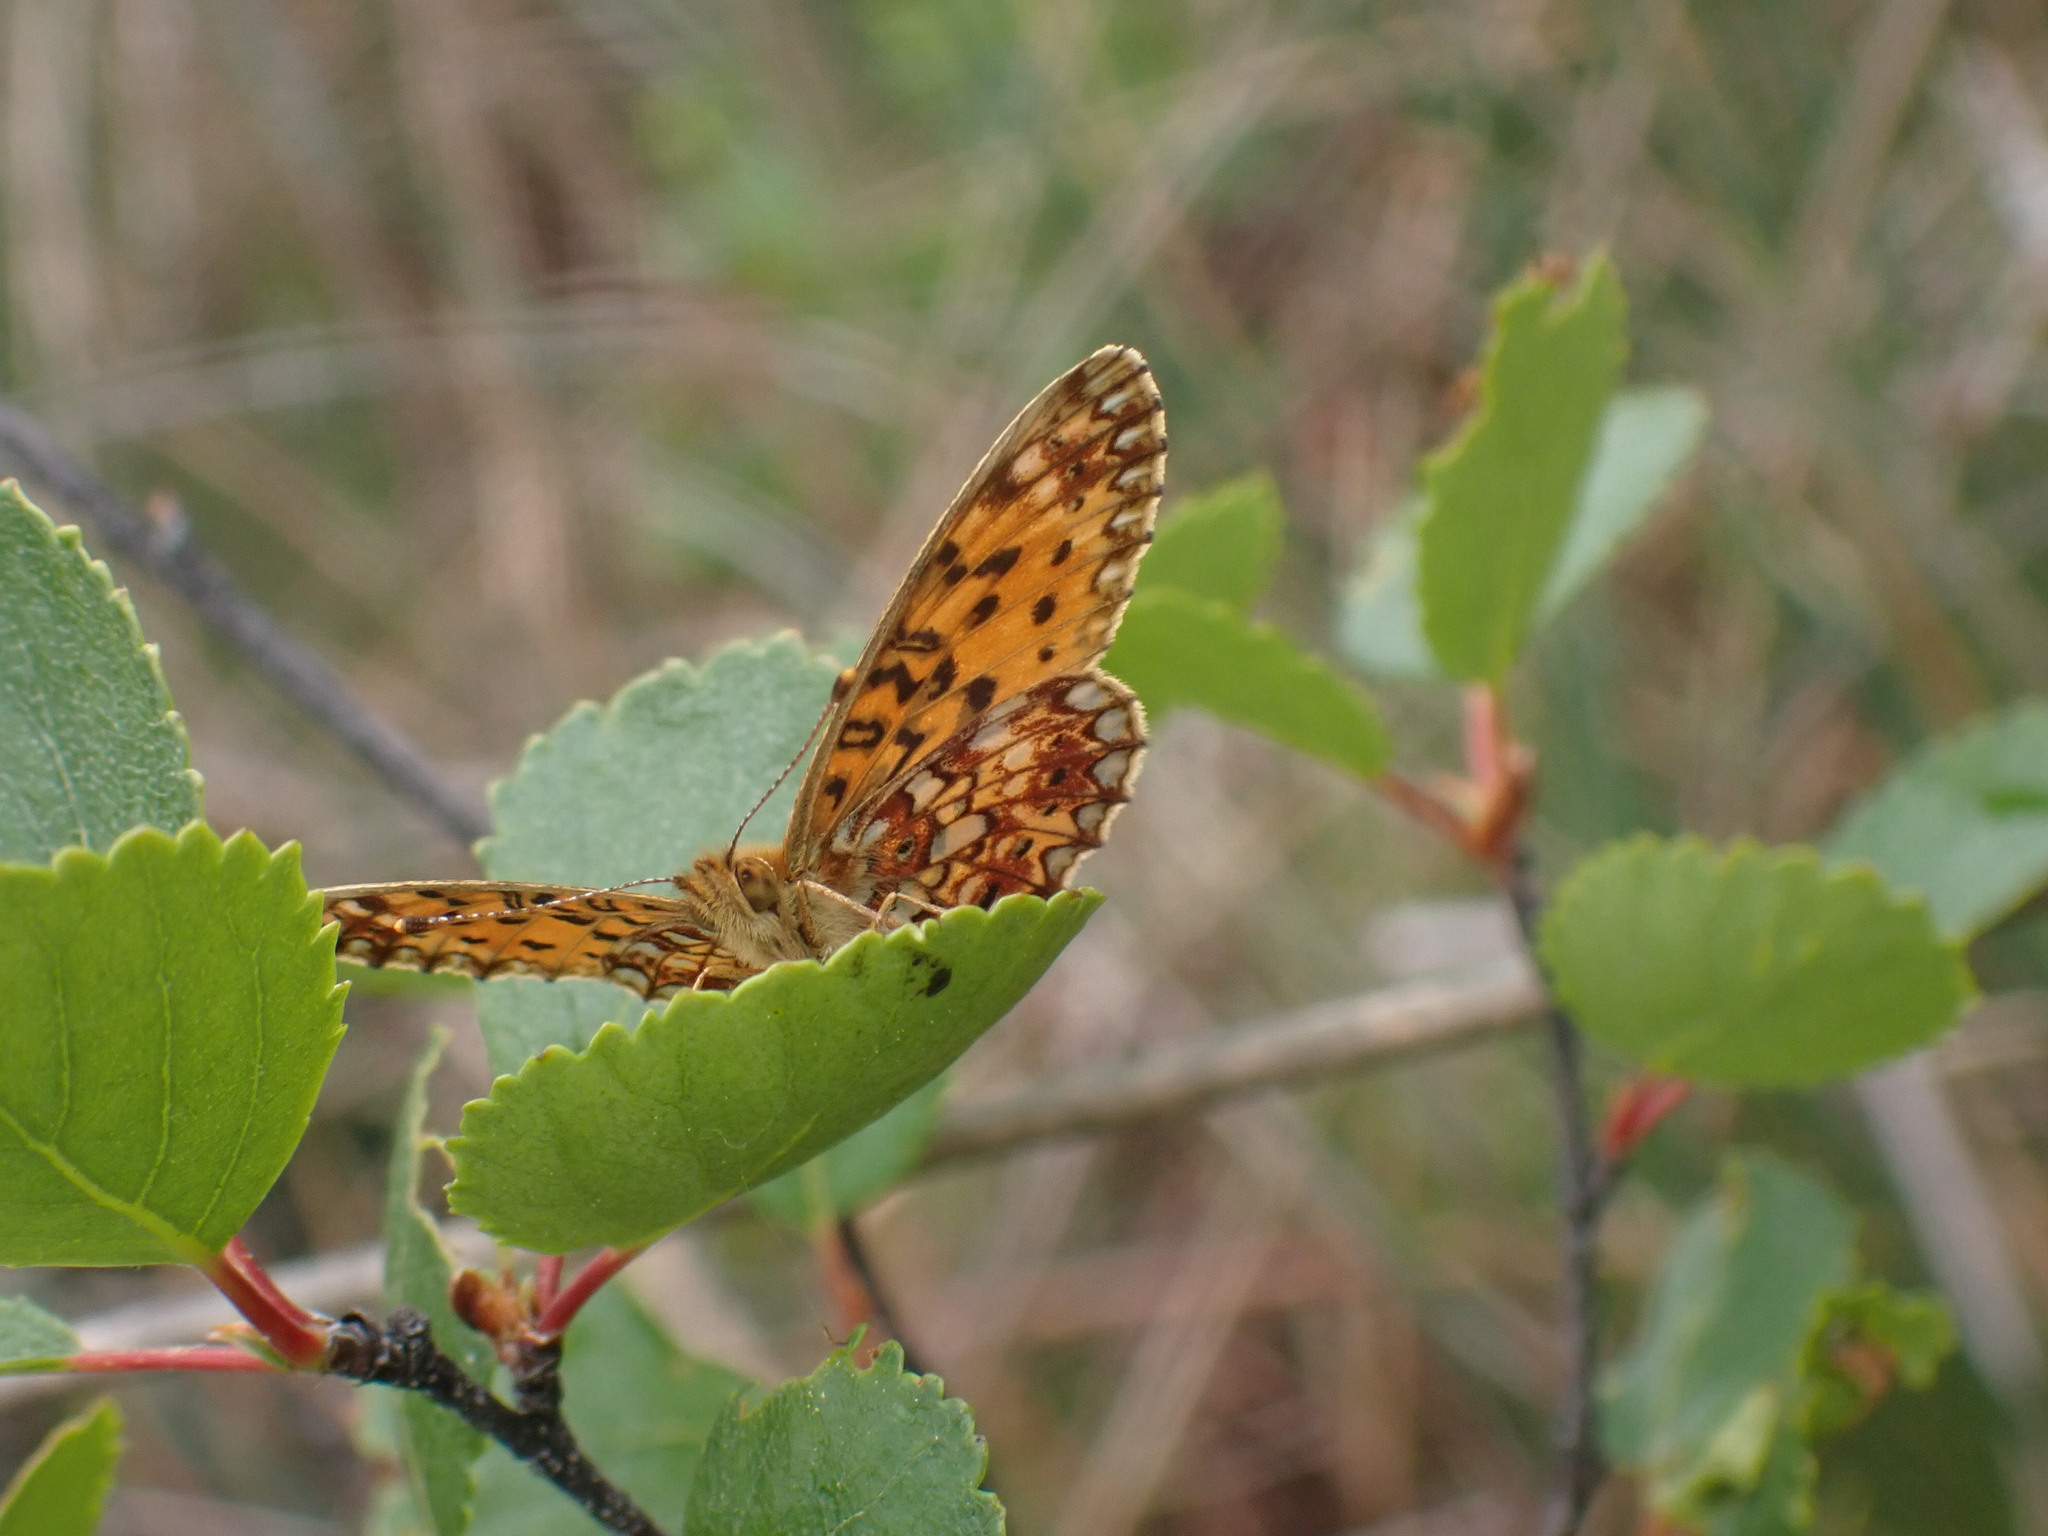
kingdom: Animalia
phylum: Arthropoda
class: Insecta
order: Lepidoptera
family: Nymphalidae
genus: Boloria
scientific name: Boloria
